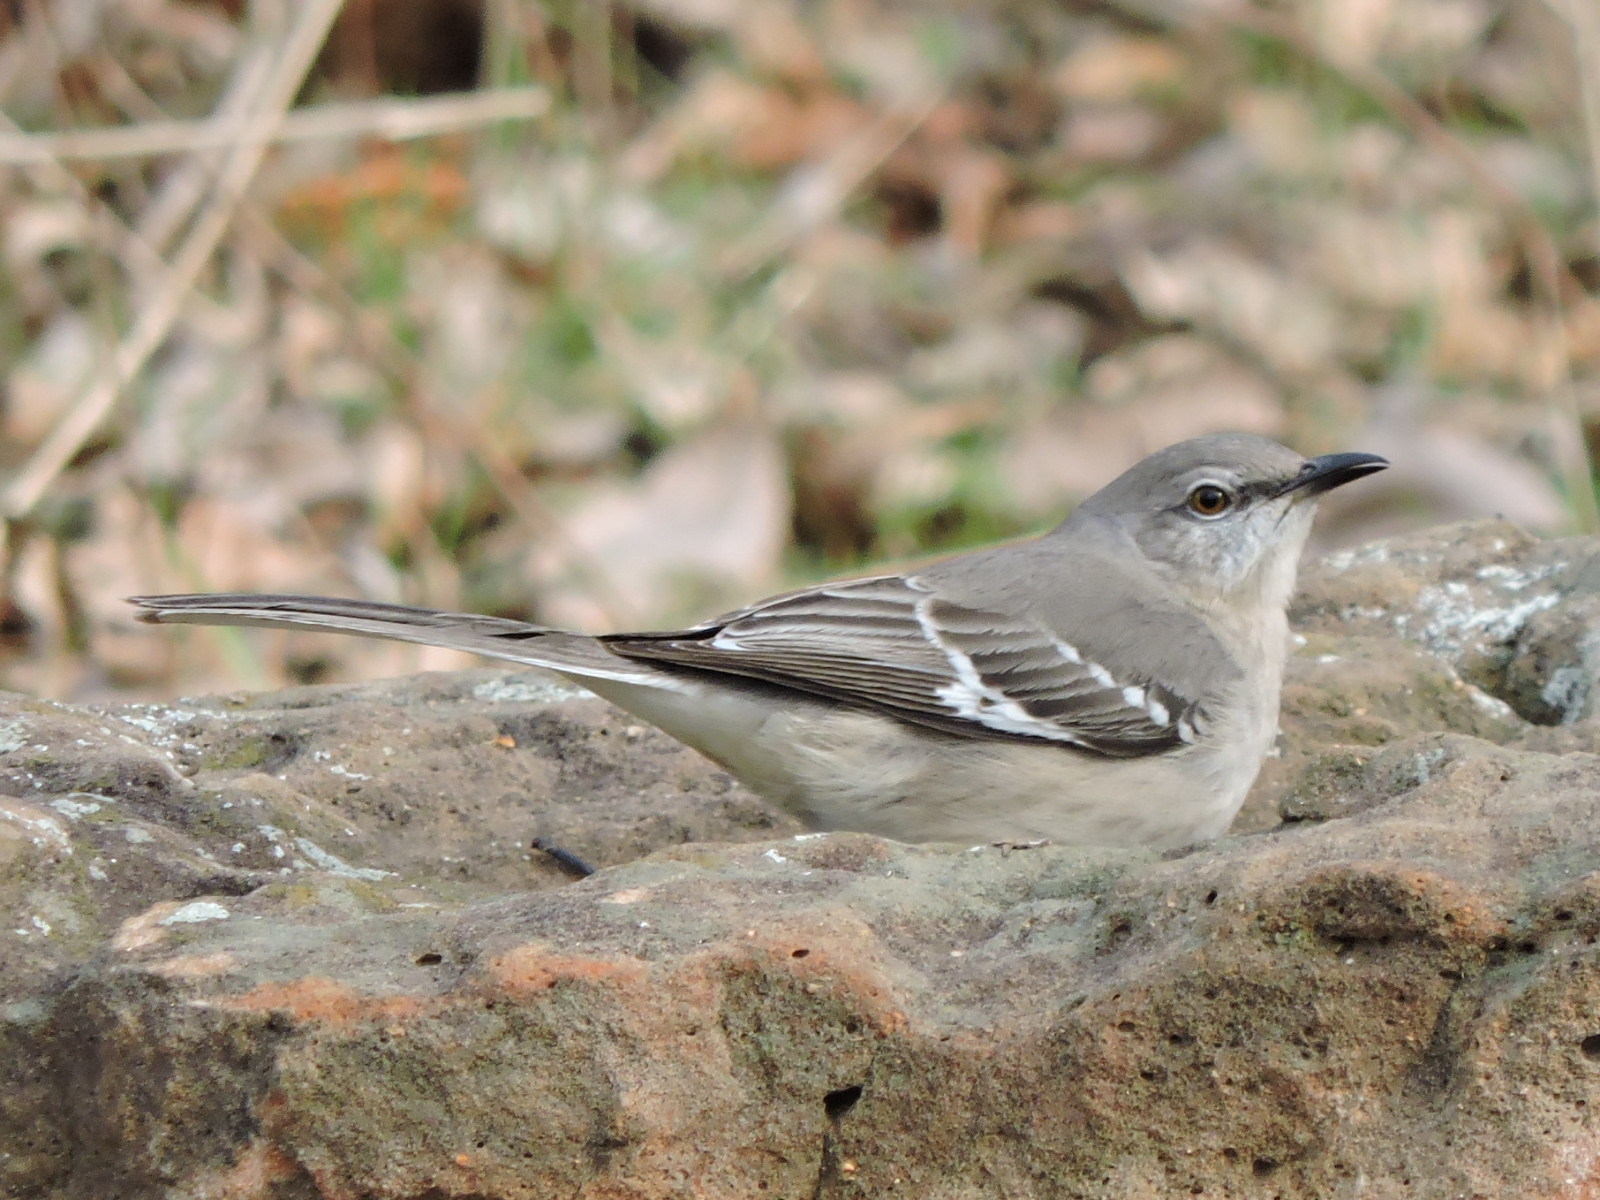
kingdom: Animalia
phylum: Chordata
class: Aves
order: Passeriformes
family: Mimidae
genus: Mimus
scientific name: Mimus polyglottos
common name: Northern mockingbird
